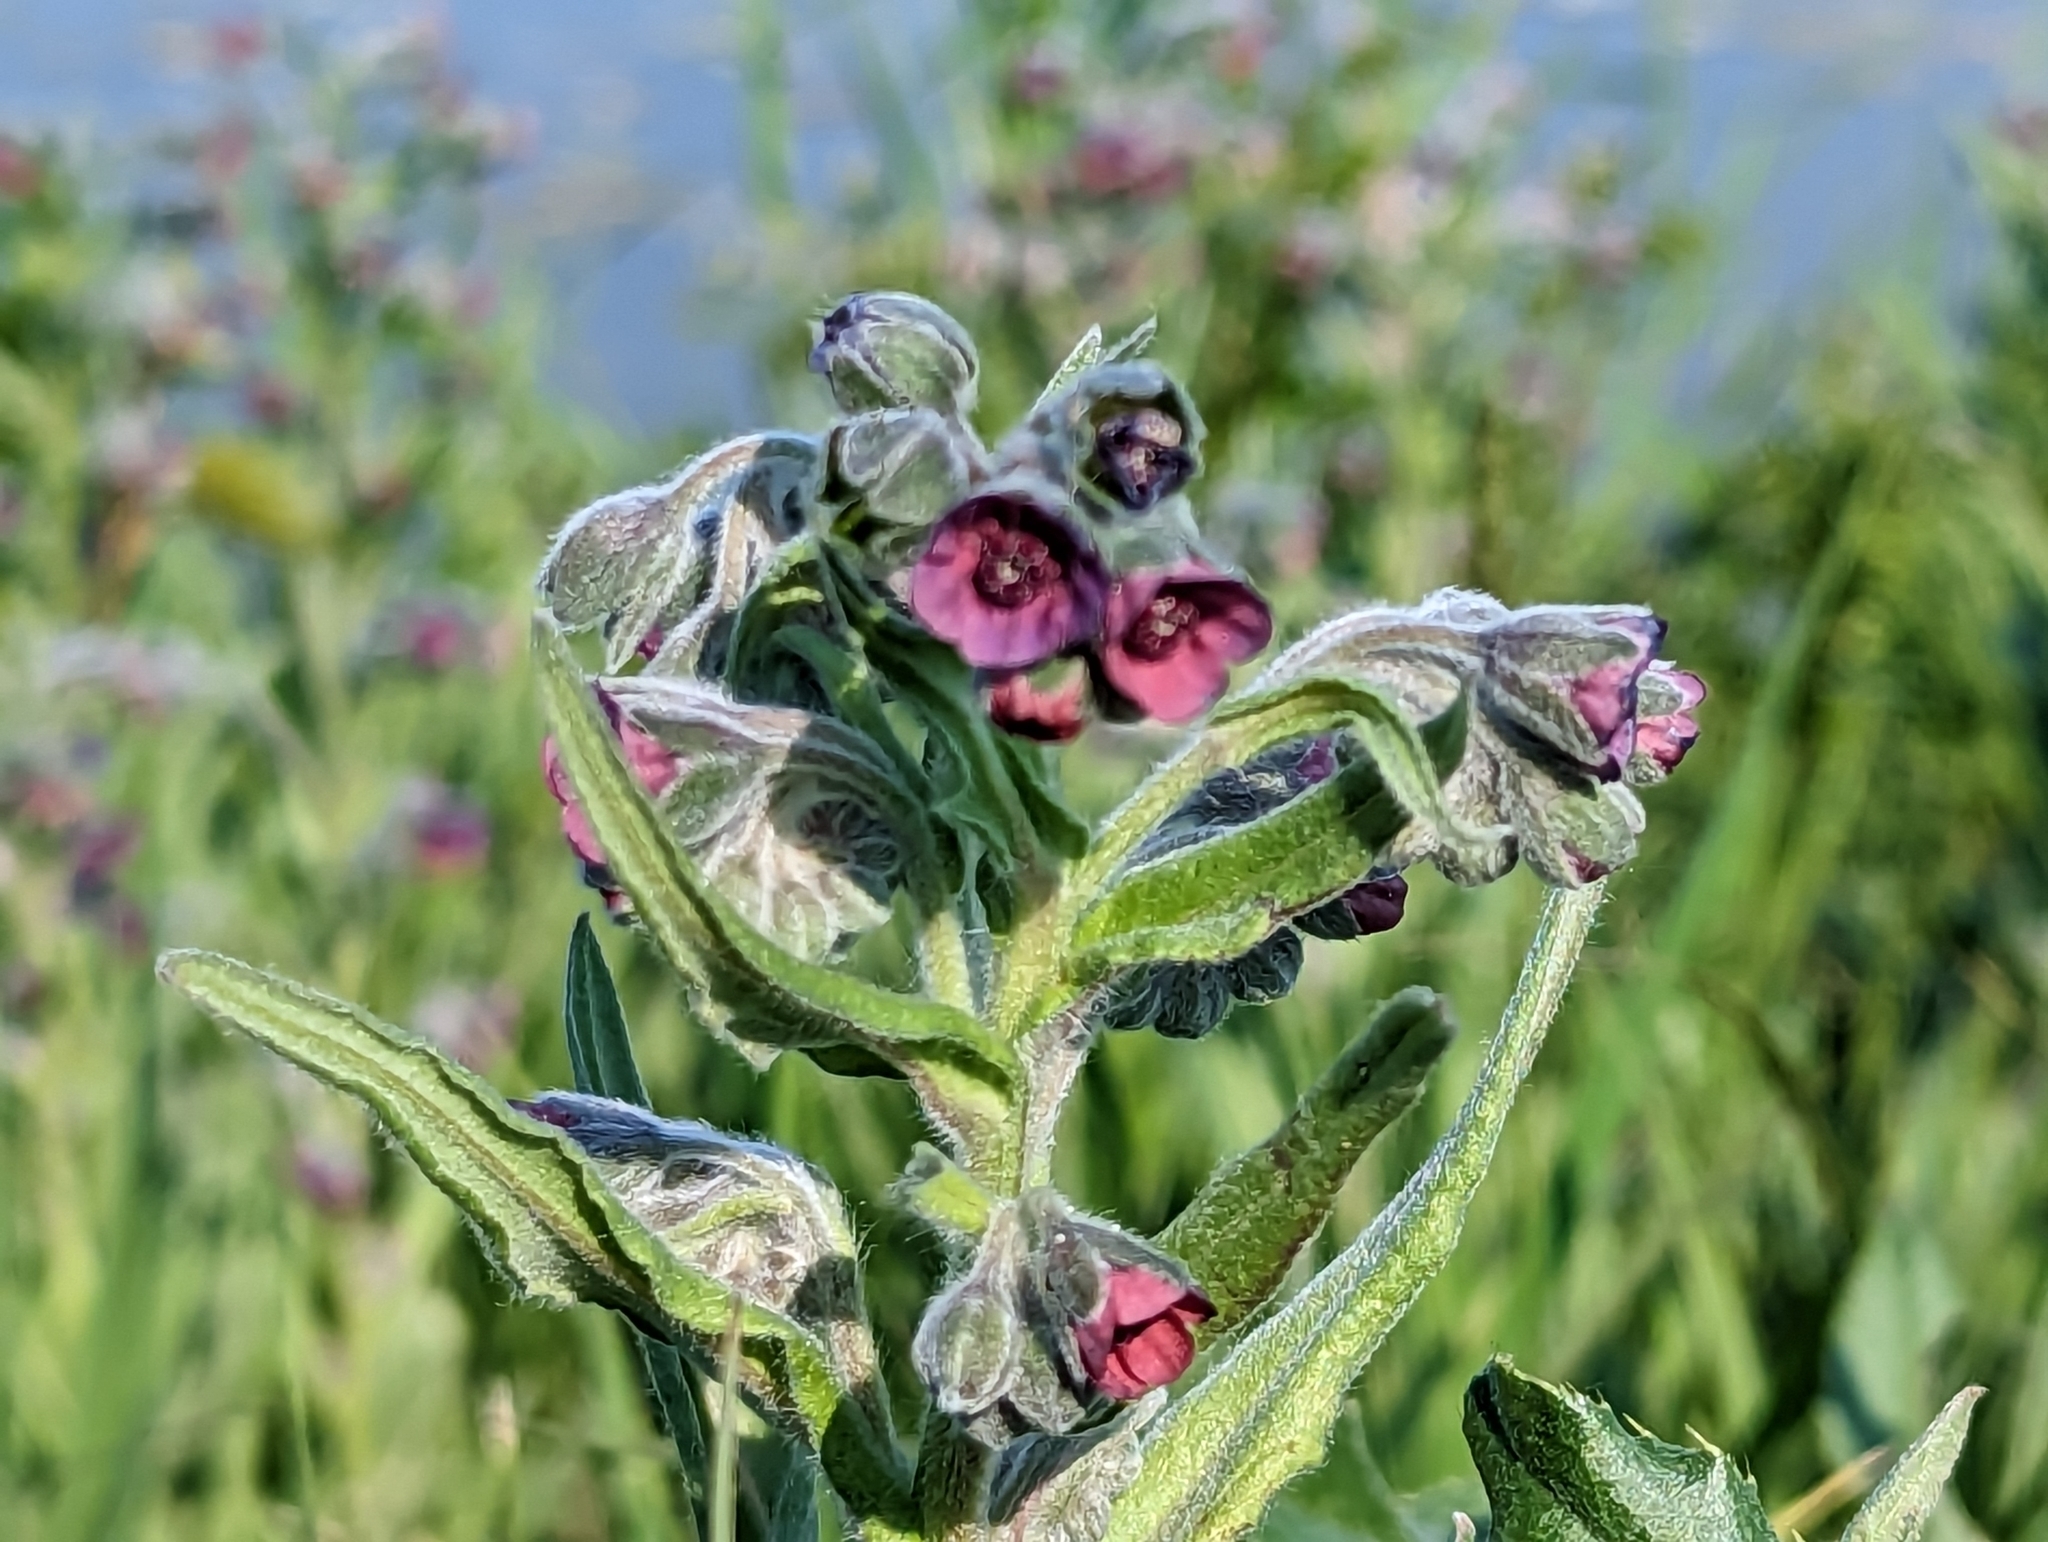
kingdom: Plantae
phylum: Tracheophyta
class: Magnoliopsida
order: Boraginales
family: Boraginaceae
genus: Cynoglossum
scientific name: Cynoglossum officinale
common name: Hound's-tongue
